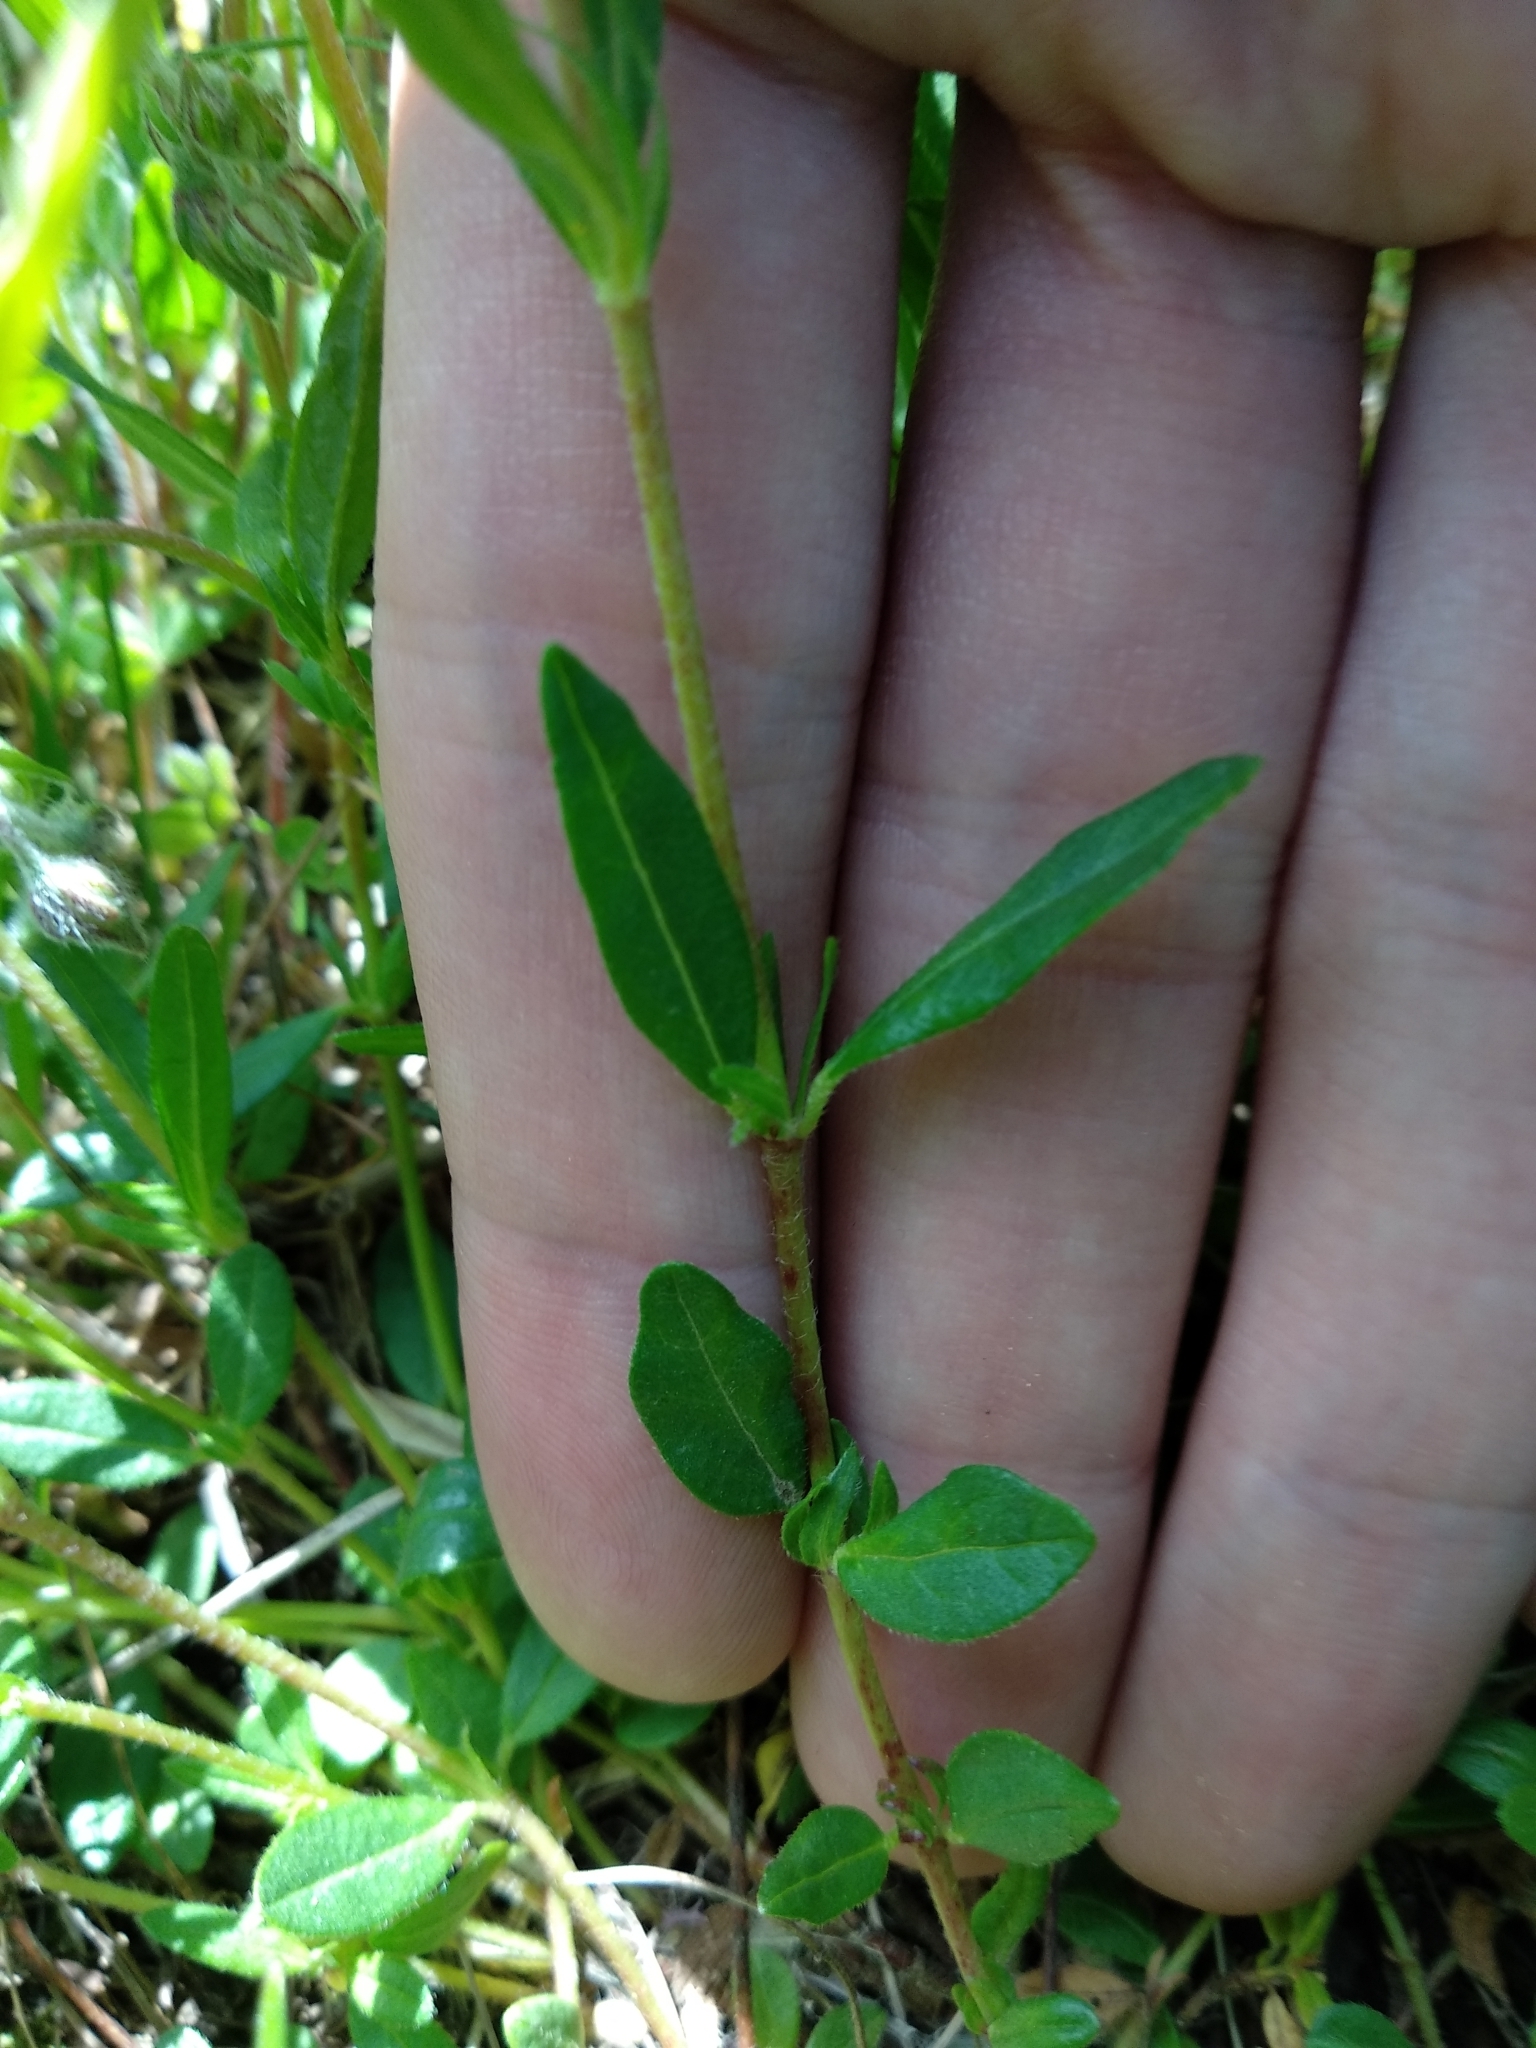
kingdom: Plantae
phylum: Tracheophyta
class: Magnoliopsida
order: Malvales
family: Cistaceae
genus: Helianthemum
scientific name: Helianthemum nummularium
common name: Common rock-rose
